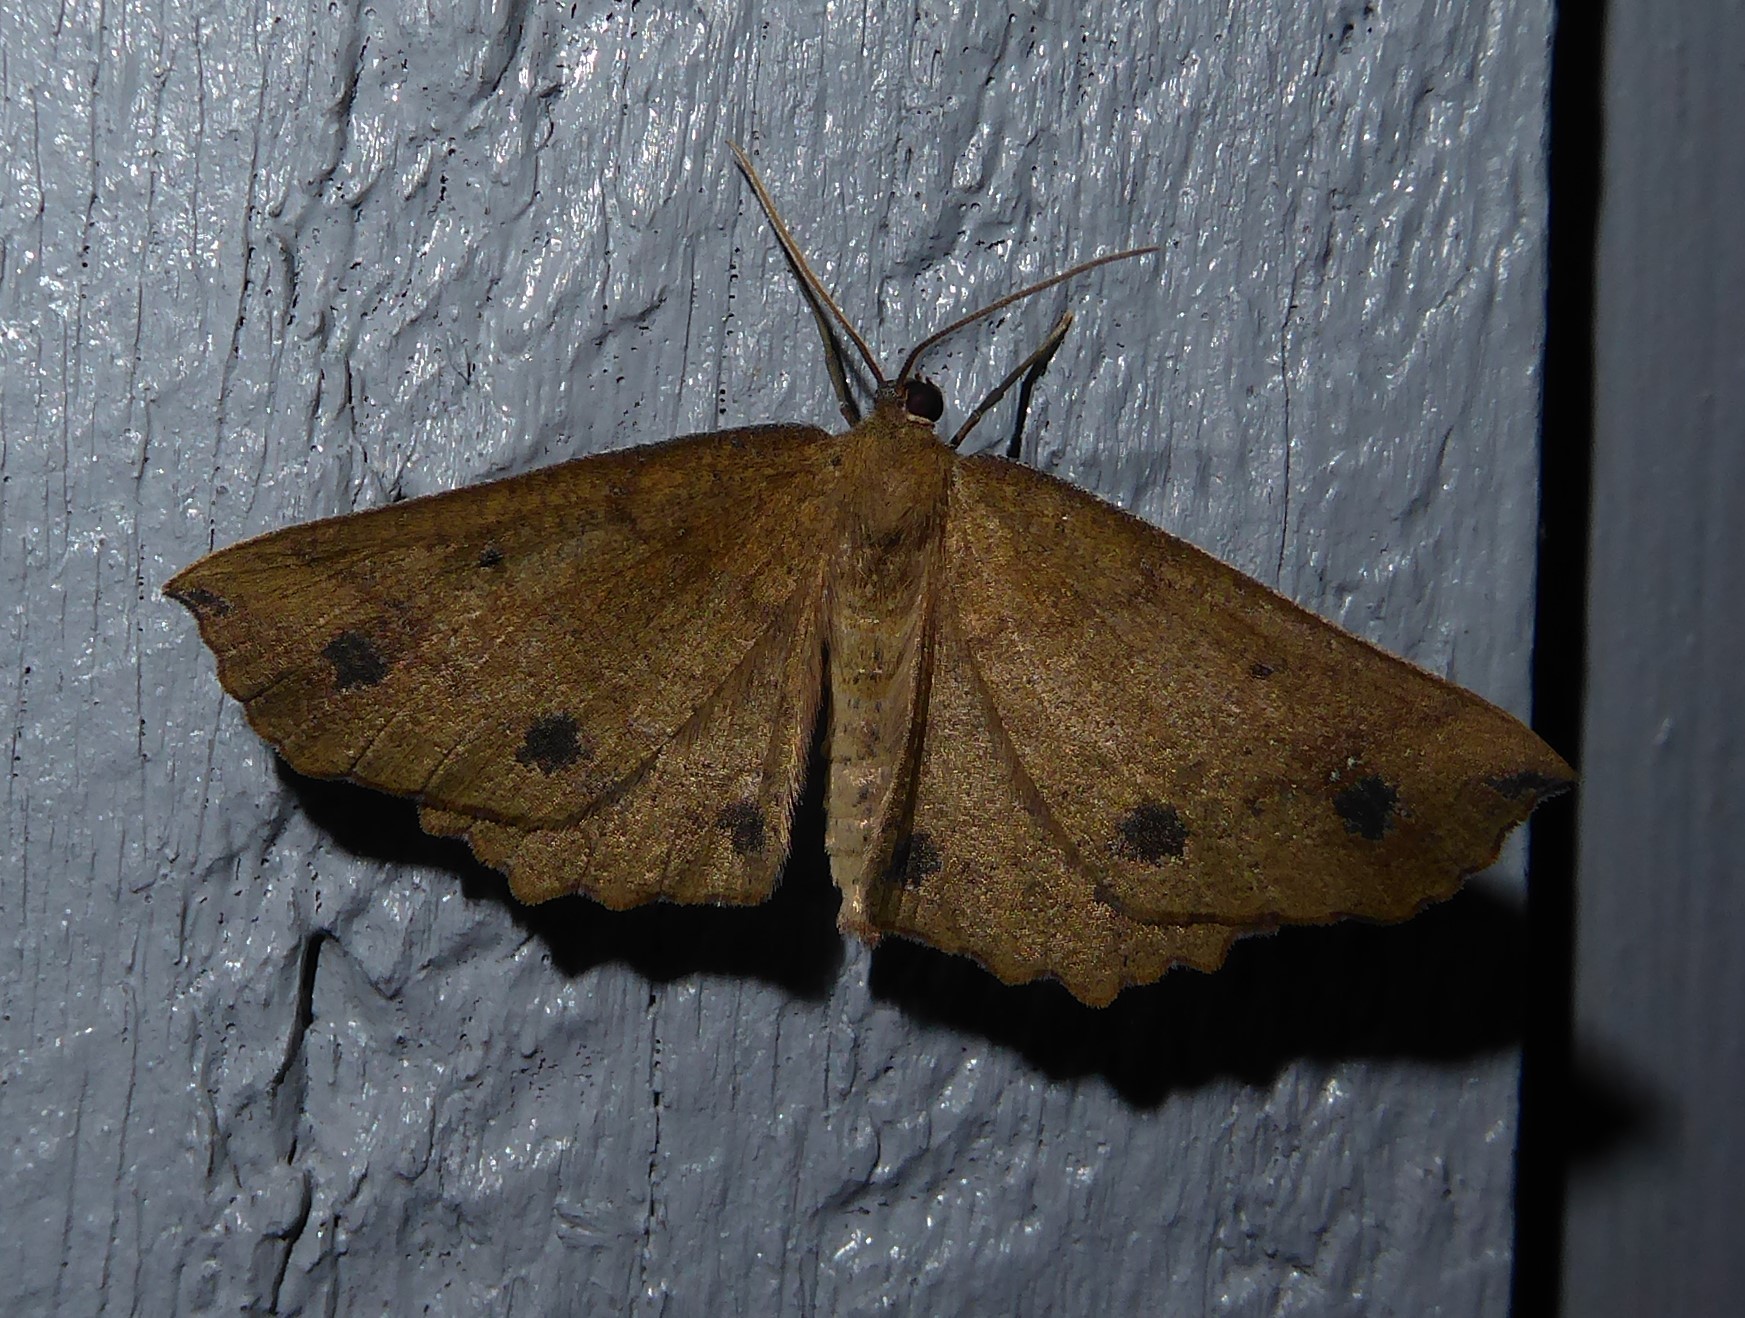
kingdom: Animalia
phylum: Arthropoda
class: Insecta
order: Lepidoptera
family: Geometridae
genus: Xyridacma
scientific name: Xyridacma ustaria
